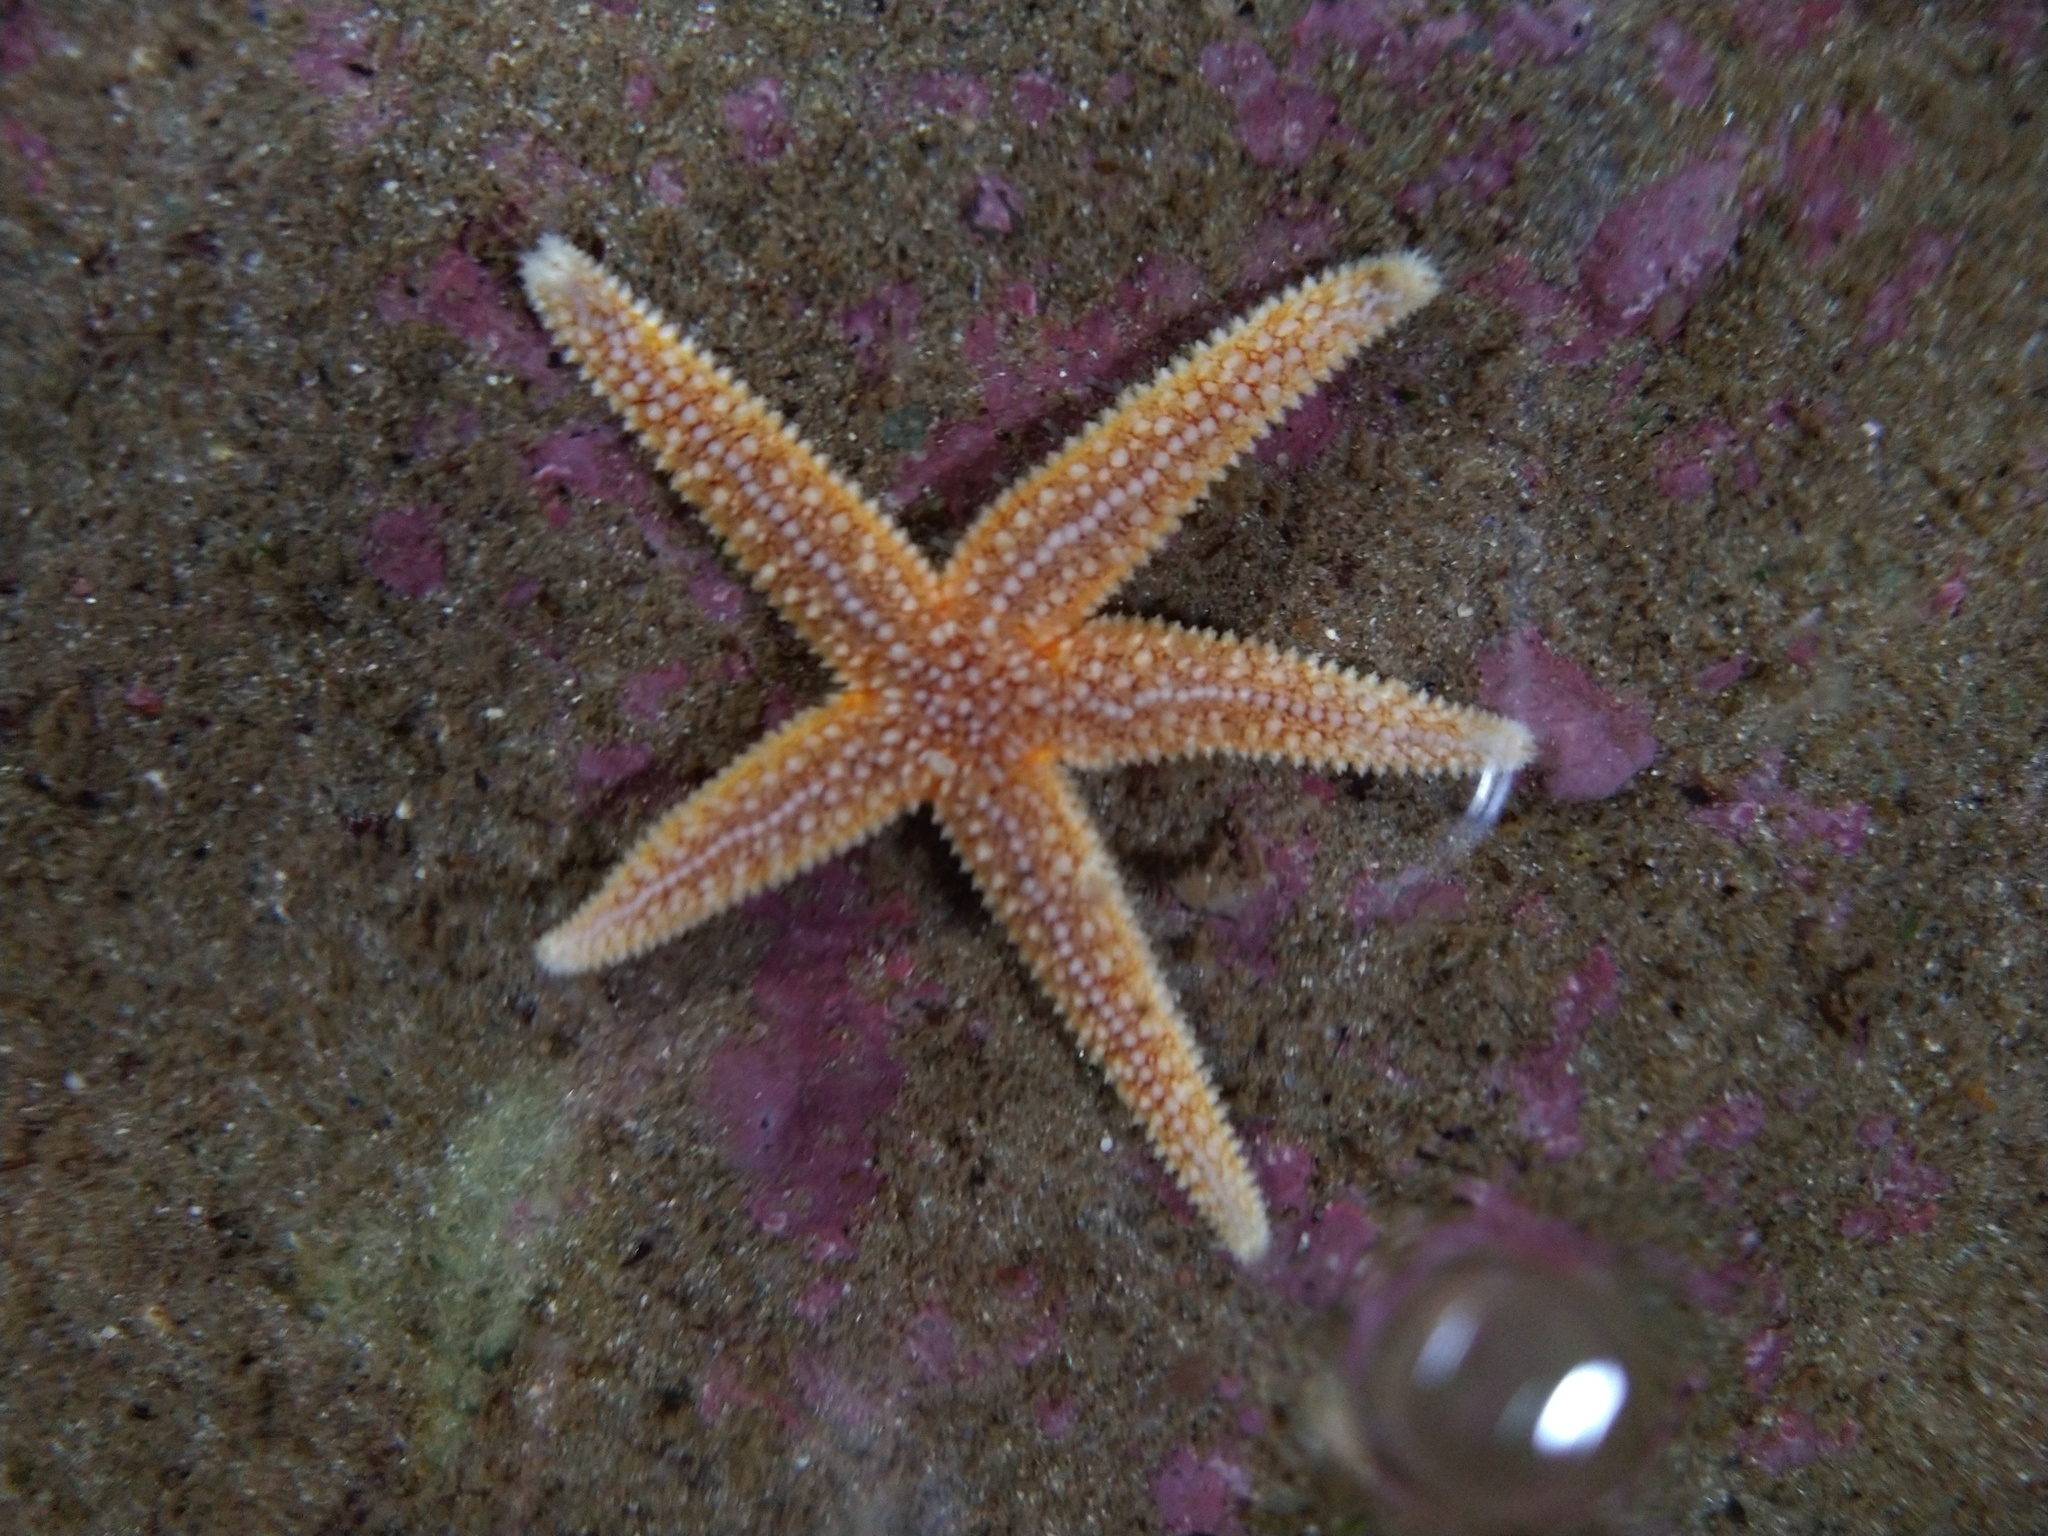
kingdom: Animalia
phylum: Echinodermata
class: Asteroidea
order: Forcipulatida
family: Asteriidae
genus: Asterias
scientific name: Asterias rubens
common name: Common starfish
